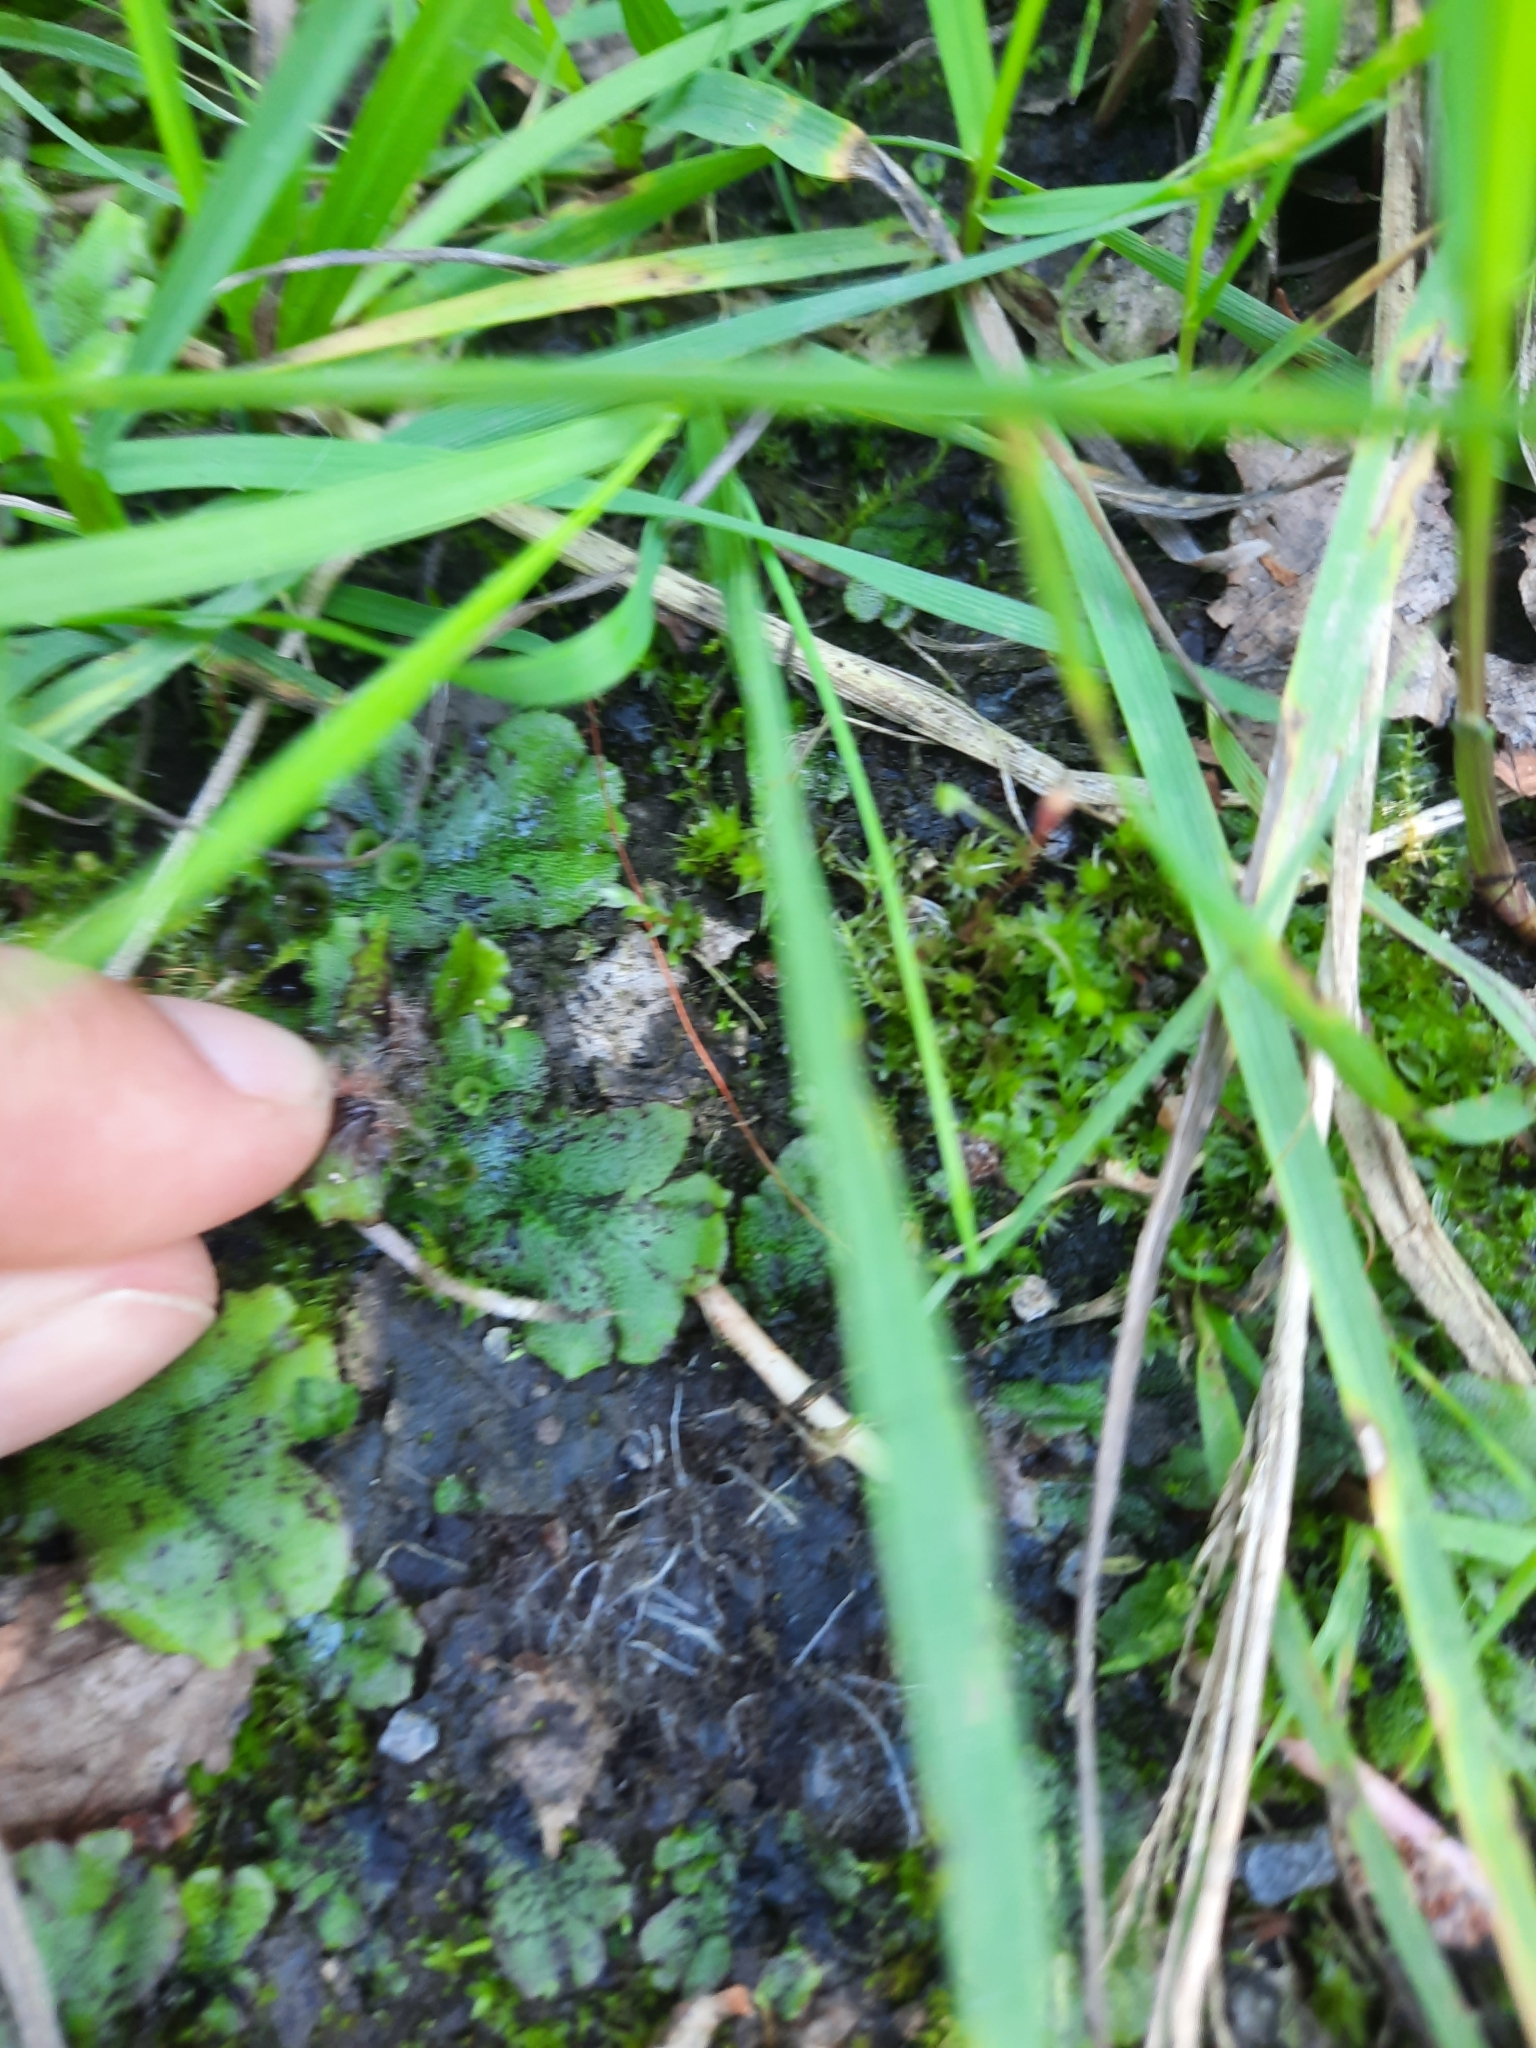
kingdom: Plantae
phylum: Marchantiophyta
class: Marchantiopsida
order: Marchantiales
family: Marchantiaceae
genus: Marchantia
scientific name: Marchantia polymorpha
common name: Common liverwort
